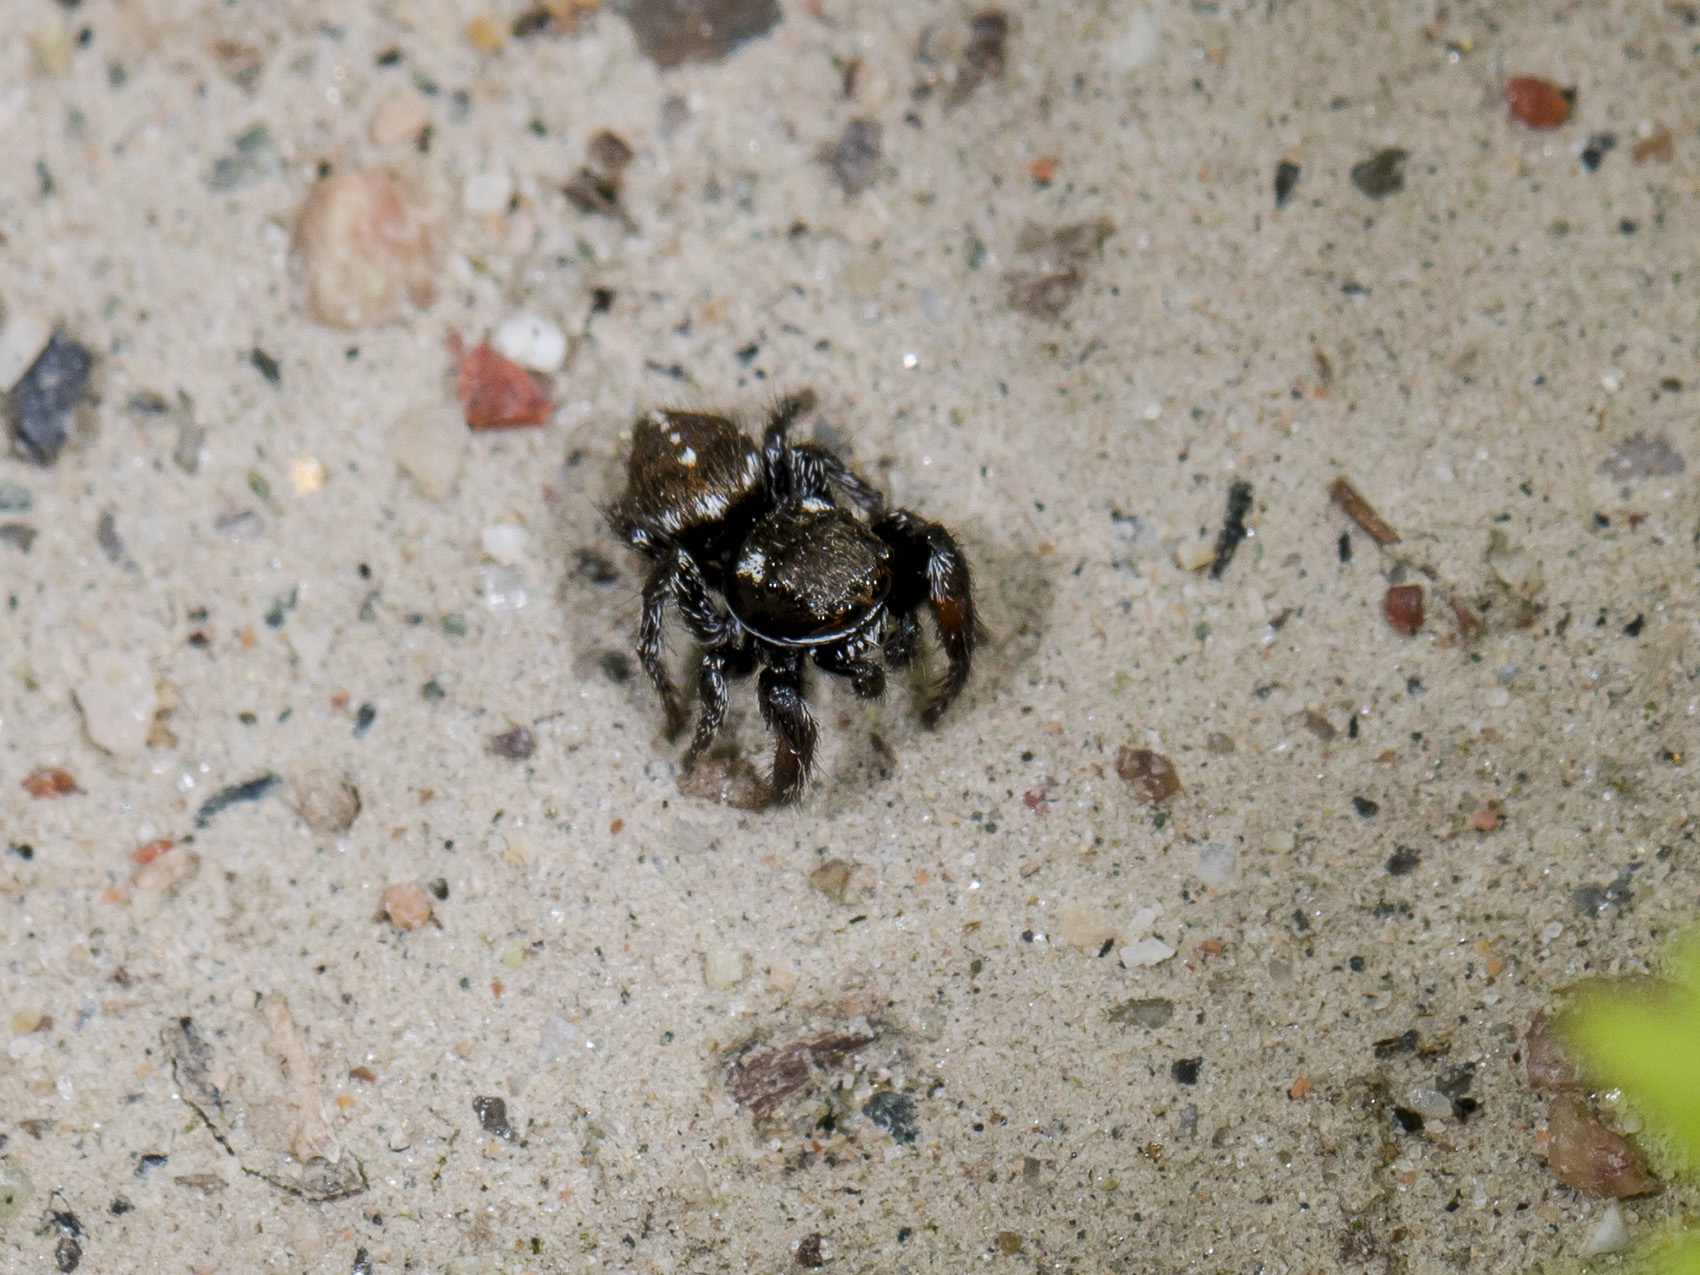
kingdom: Animalia
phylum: Arthropoda
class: Arachnida
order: Araneae
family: Salticidae
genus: Pellenes
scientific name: Pellenes allegrii
